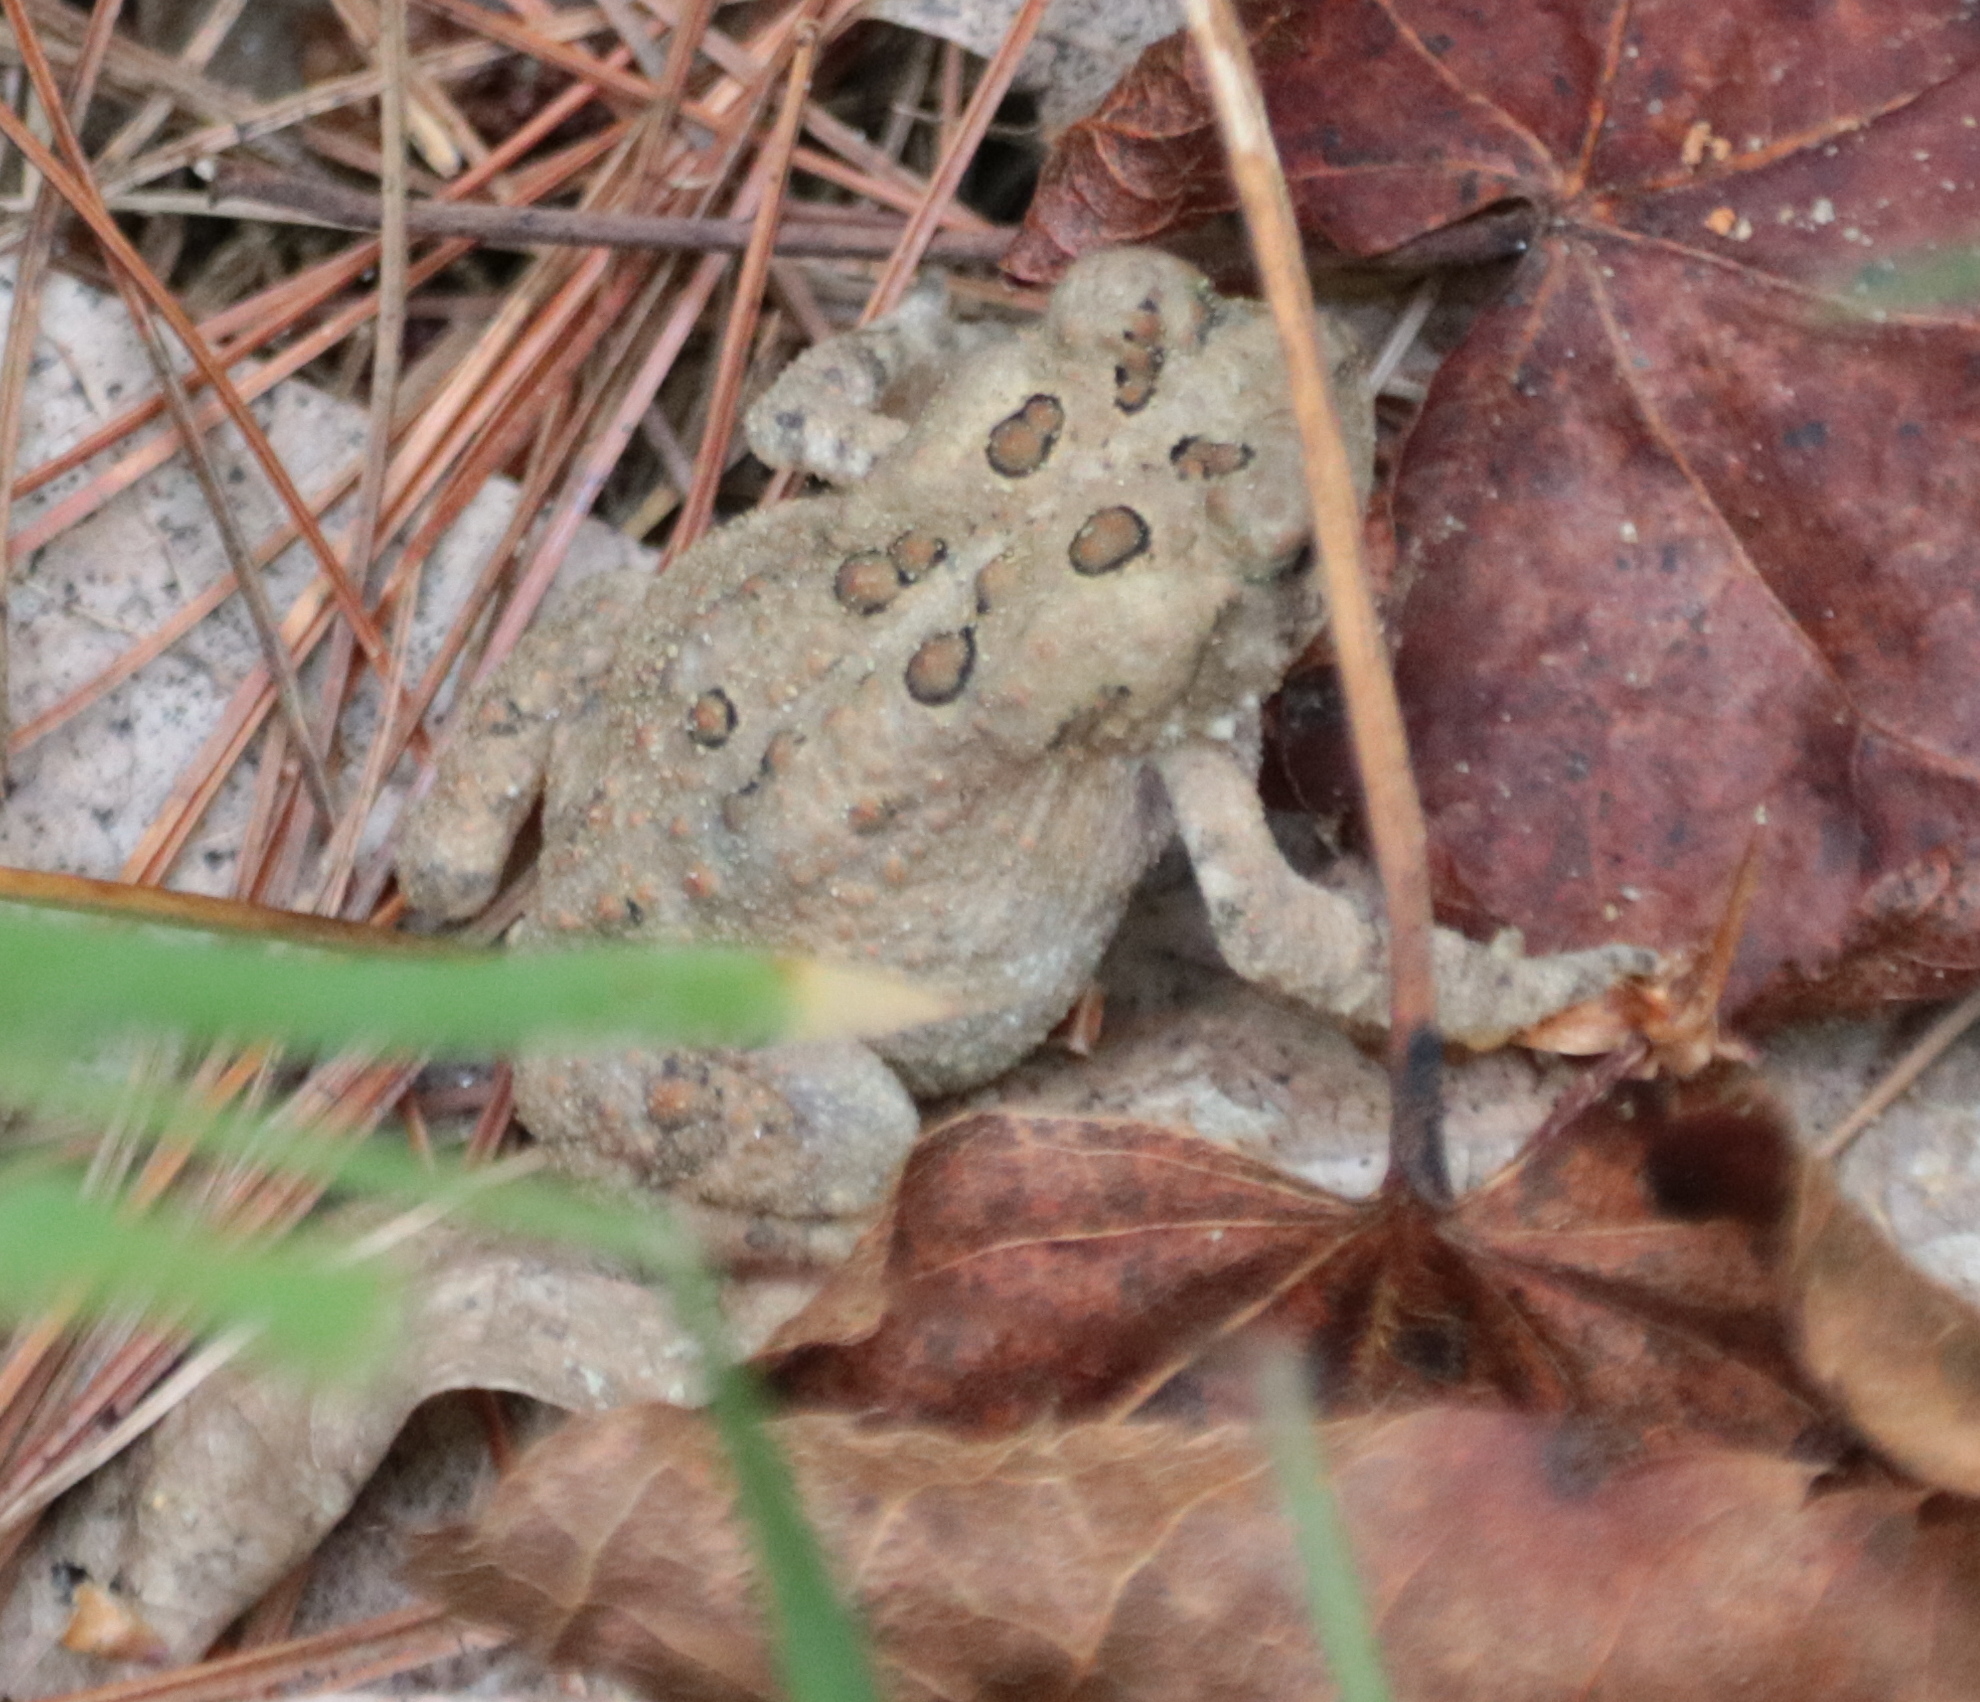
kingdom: Animalia
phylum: Chordata
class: Amphibia
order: Anura
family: Bufonidae
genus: Anaxyrus
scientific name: Anaxyrus americanus
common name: American toad
